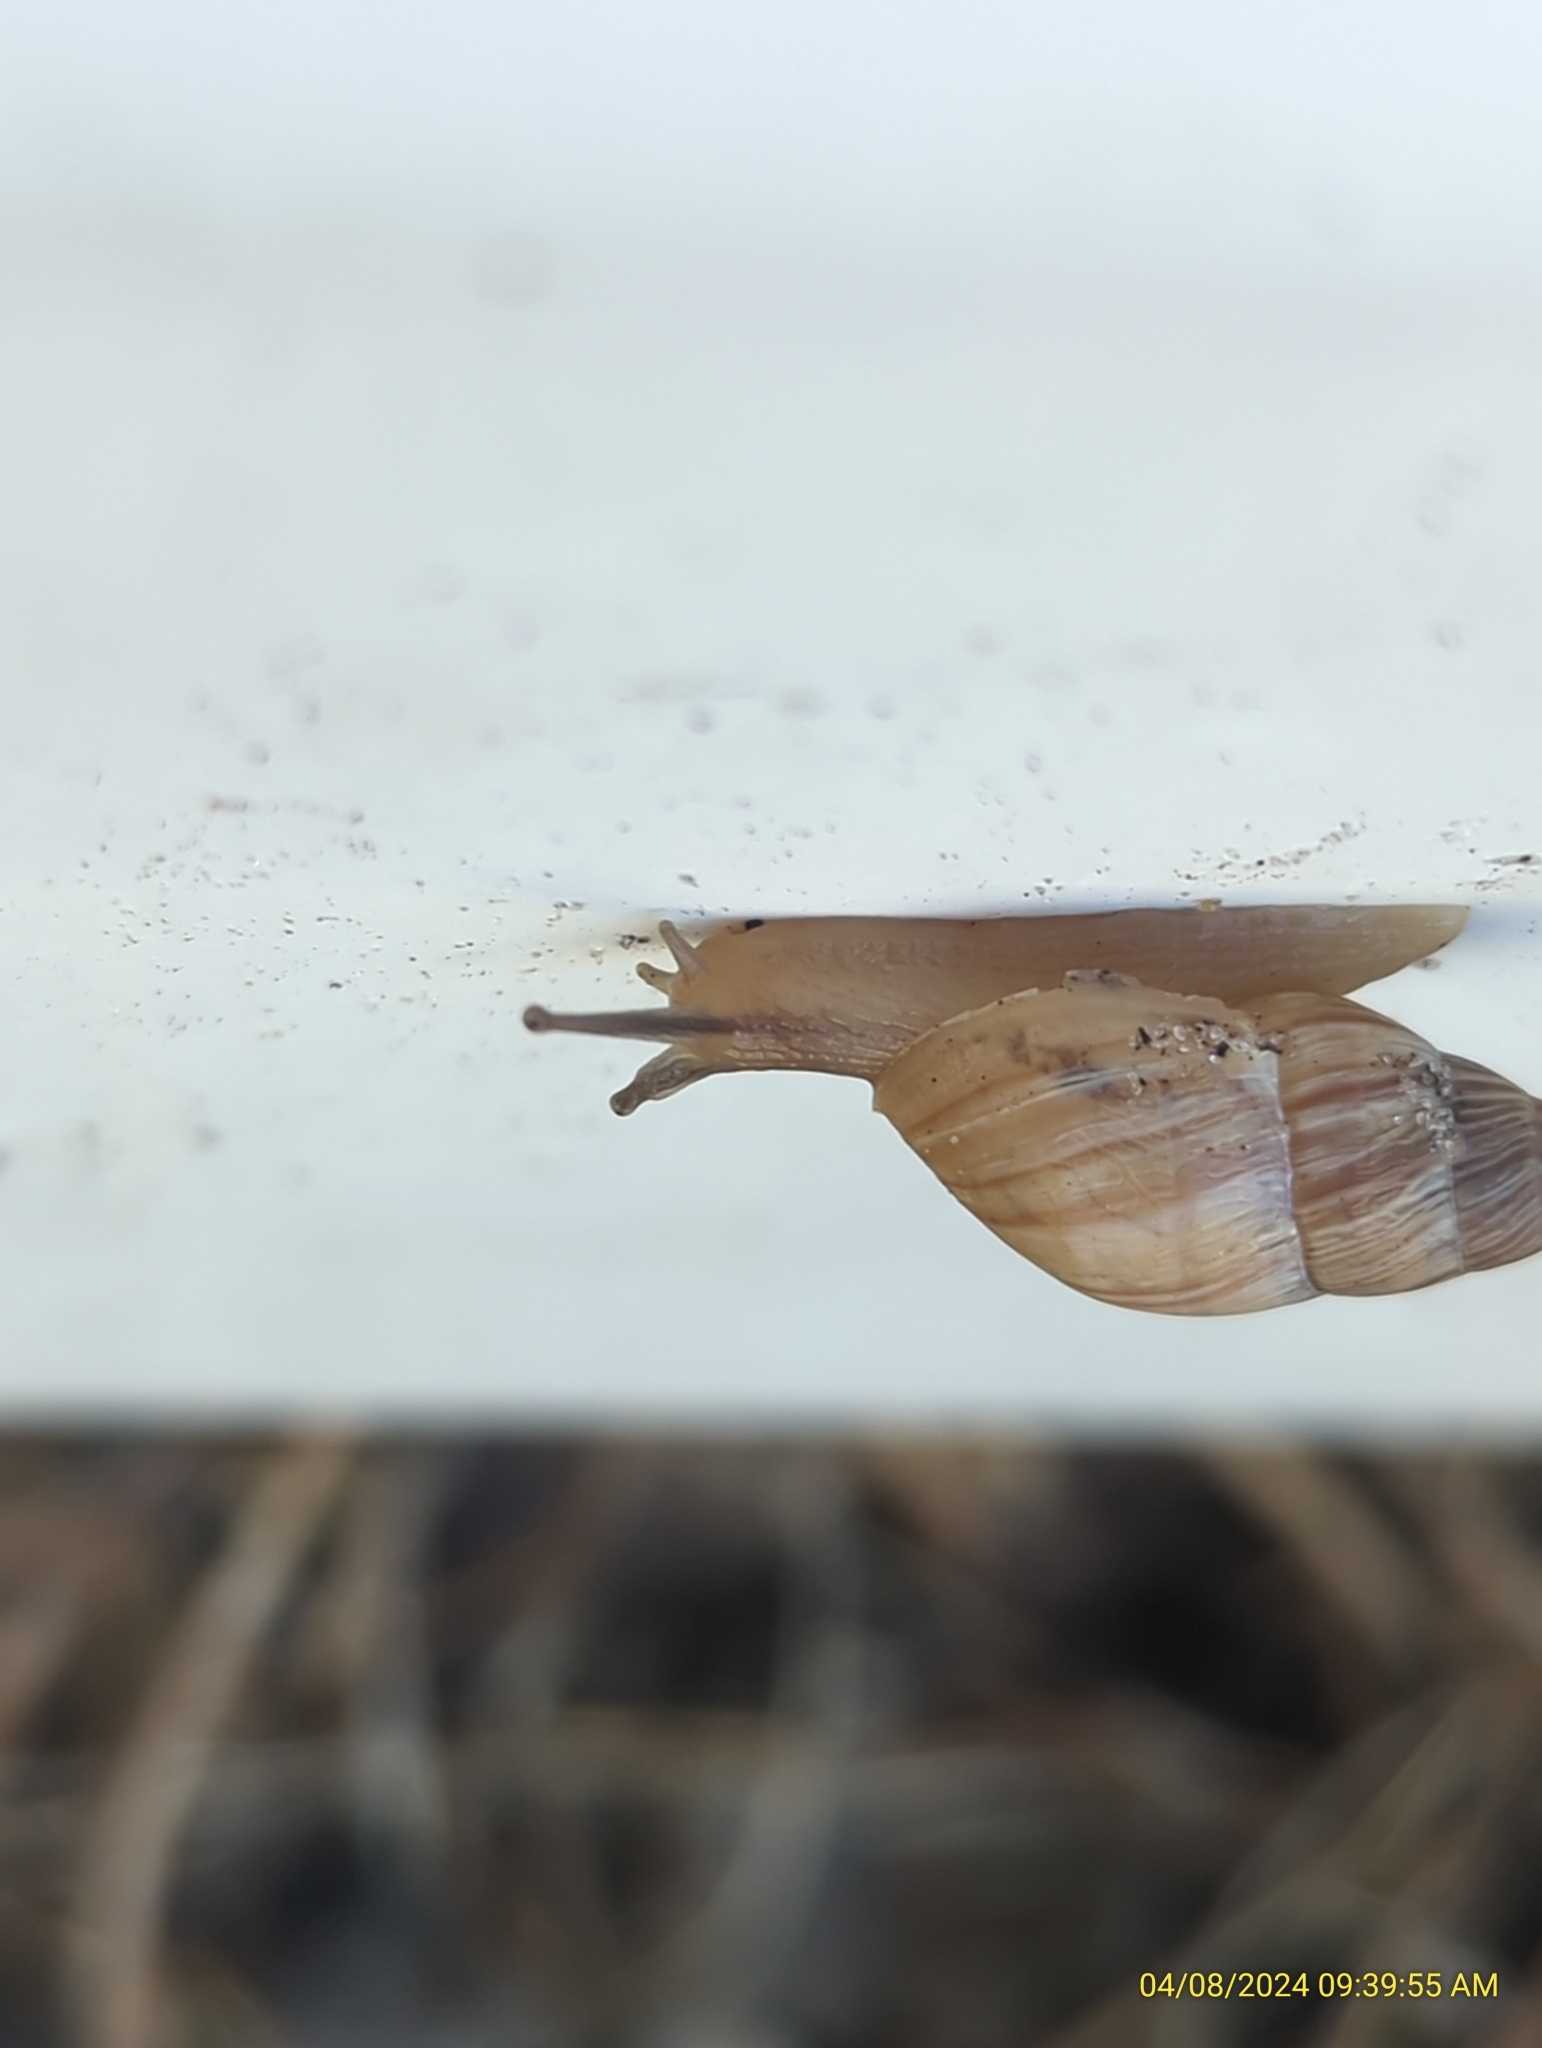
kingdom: Animalia
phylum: Mollusca
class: Gastropoda
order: Stylommatophora
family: Bulimulidae
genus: Bulimulus
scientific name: Bulimulus bonariensis
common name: Snail
